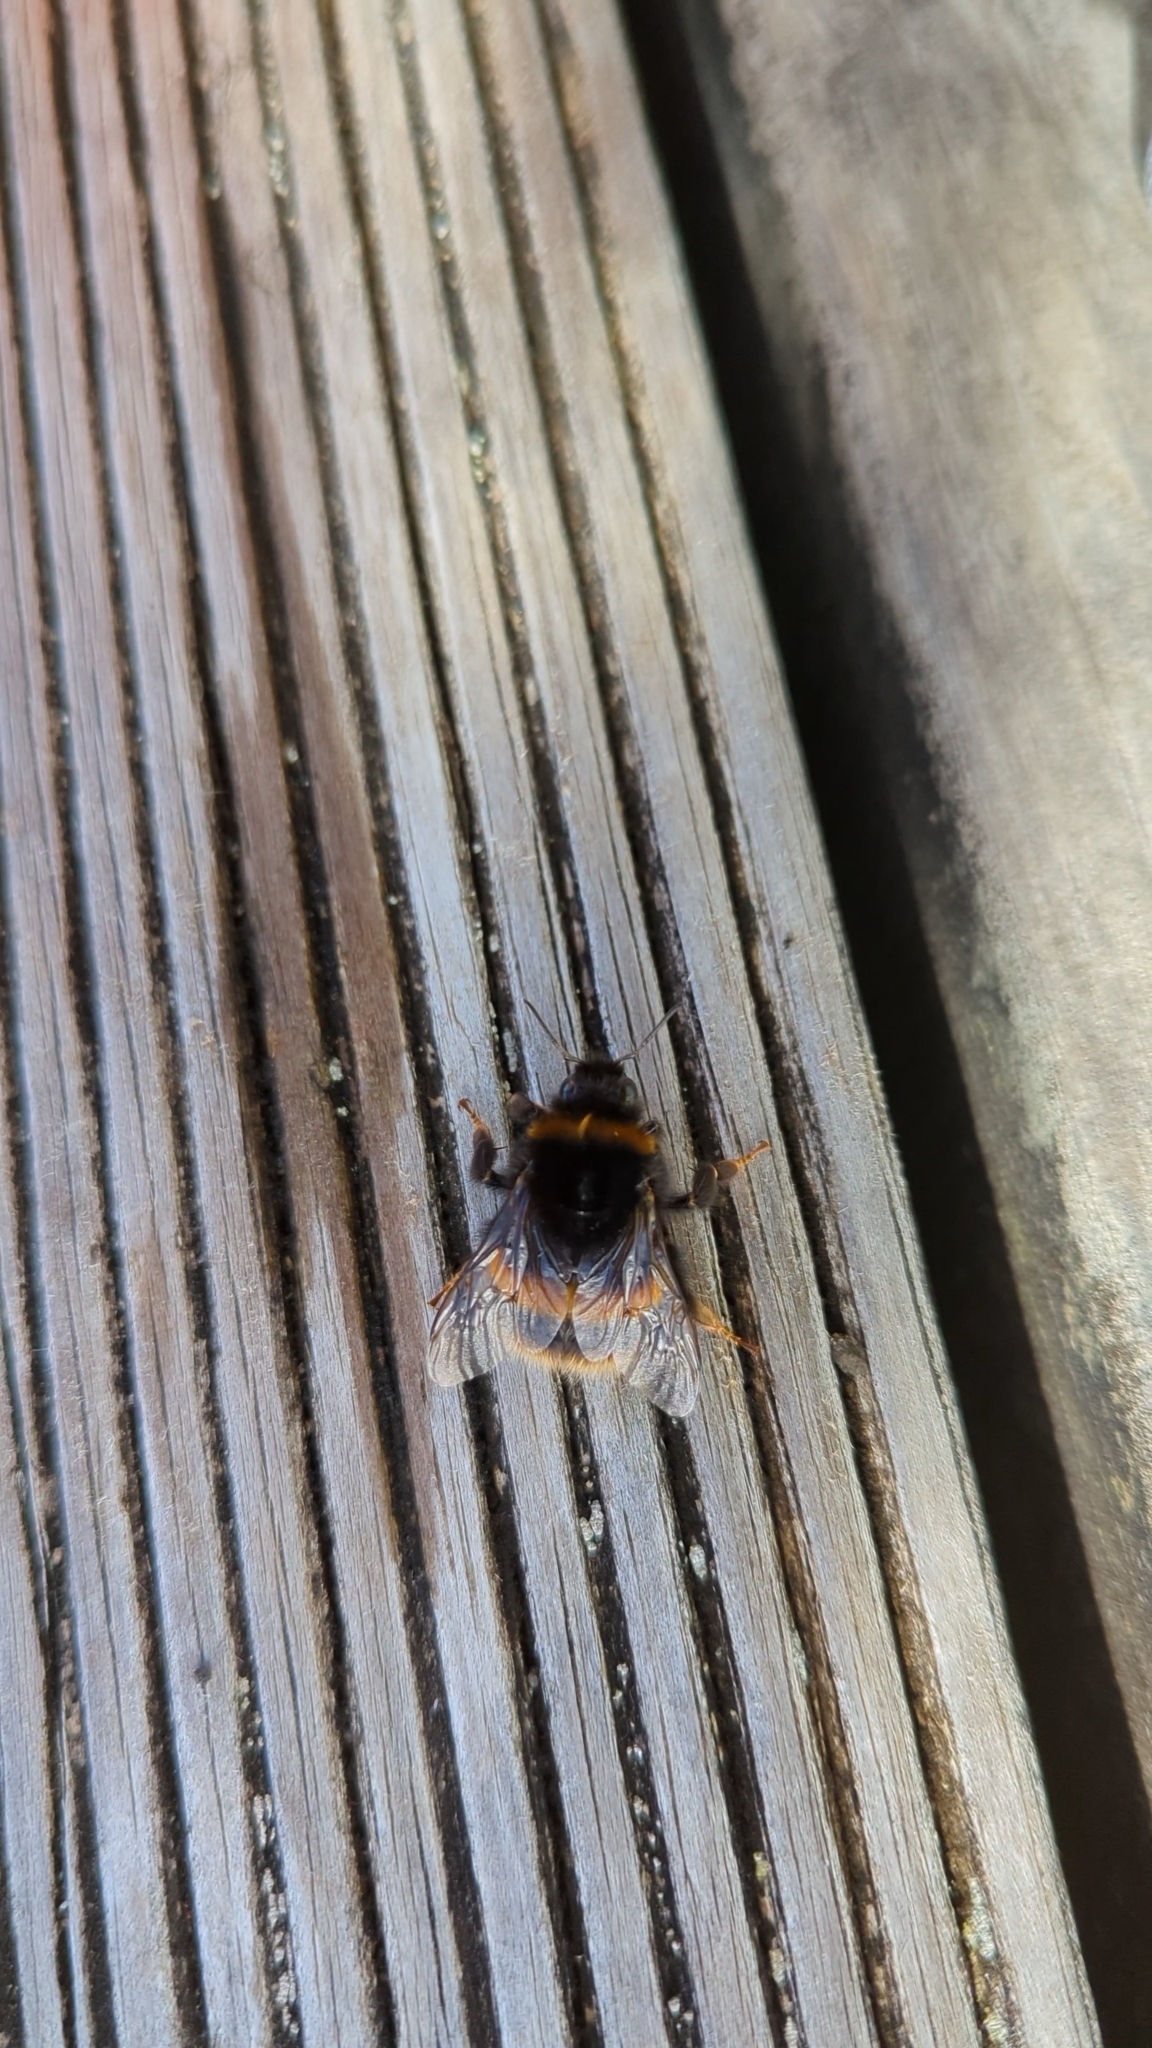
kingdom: Animalia
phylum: Arthropoda
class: Insecta
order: Hymenoptera
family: Apidae
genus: Bombus
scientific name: Bombus terrestris
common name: Buff-tailed bumblebee
